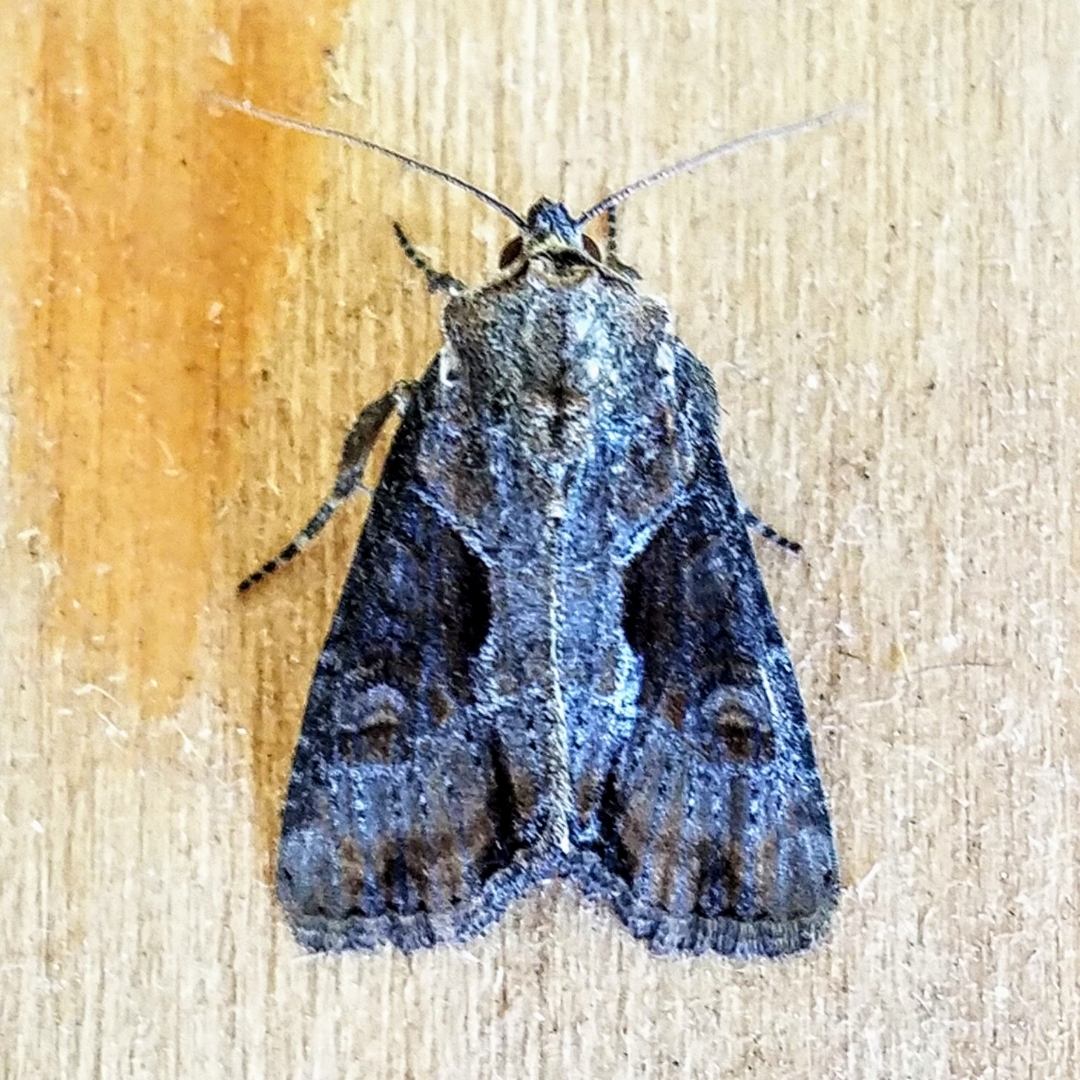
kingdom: Animalia
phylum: Arthropoda
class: Insecta
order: Lepidoptera
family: Noctuidae
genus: Lateroligia
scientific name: Lateroligia ophiogramma
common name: Double lobed
